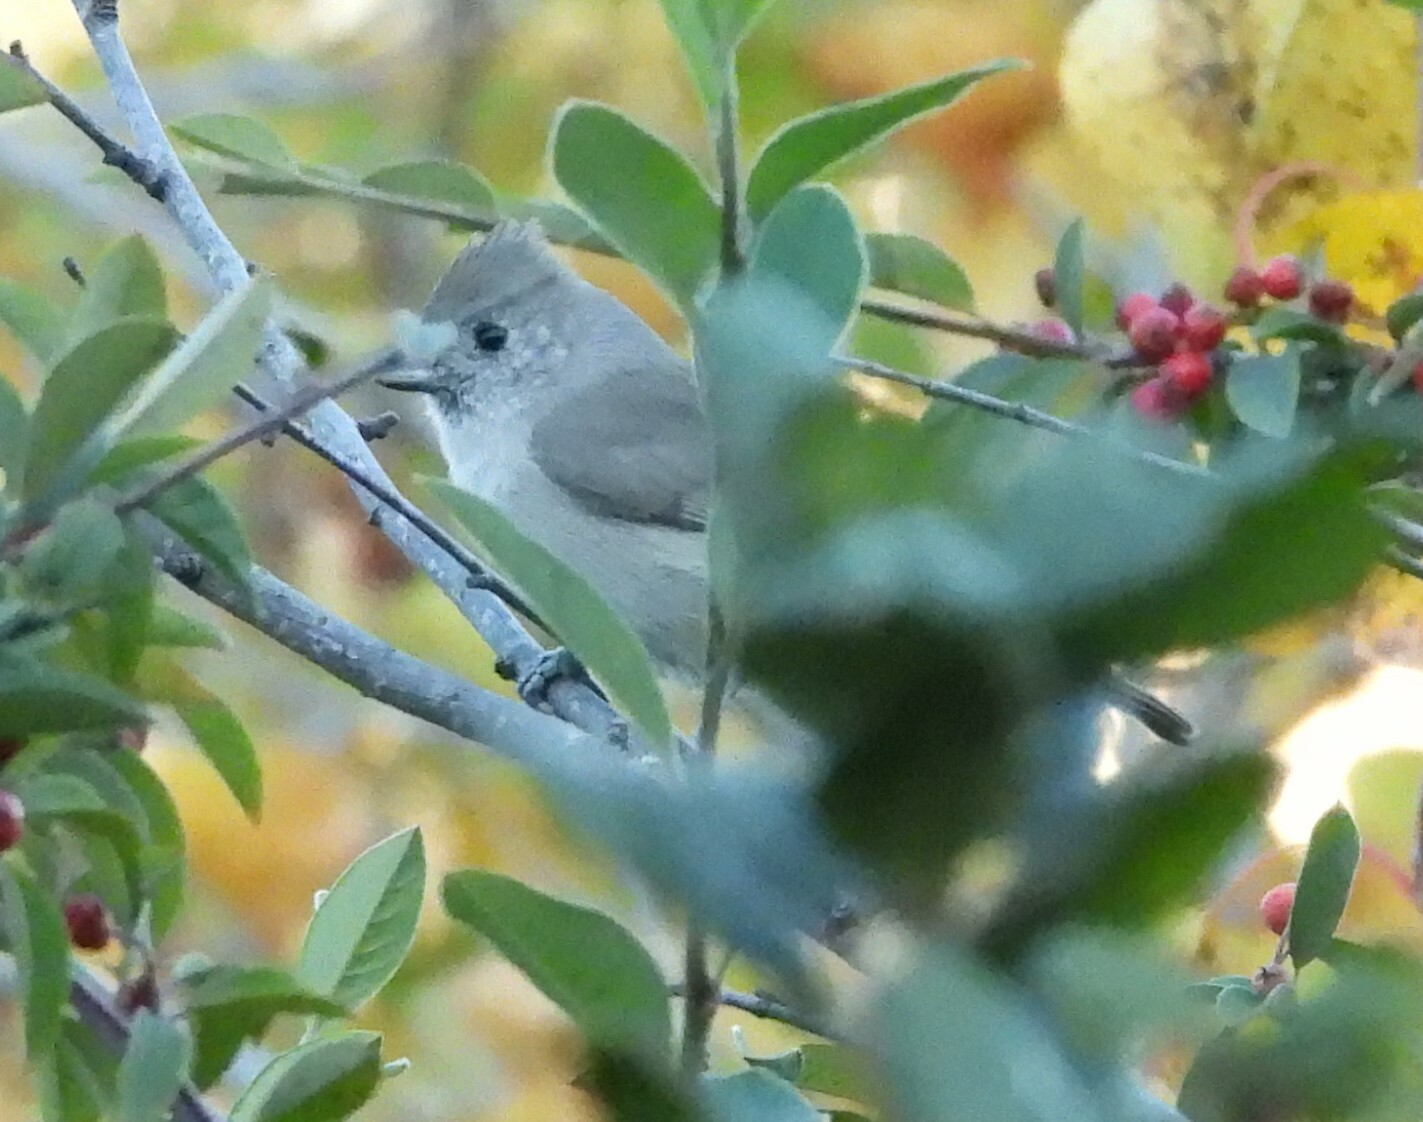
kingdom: Animalia
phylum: Chordata
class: Aves
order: Passeriformes
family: Paridae
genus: Baeolophus
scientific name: Baeolophus inornatus
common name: Oak titmouse
